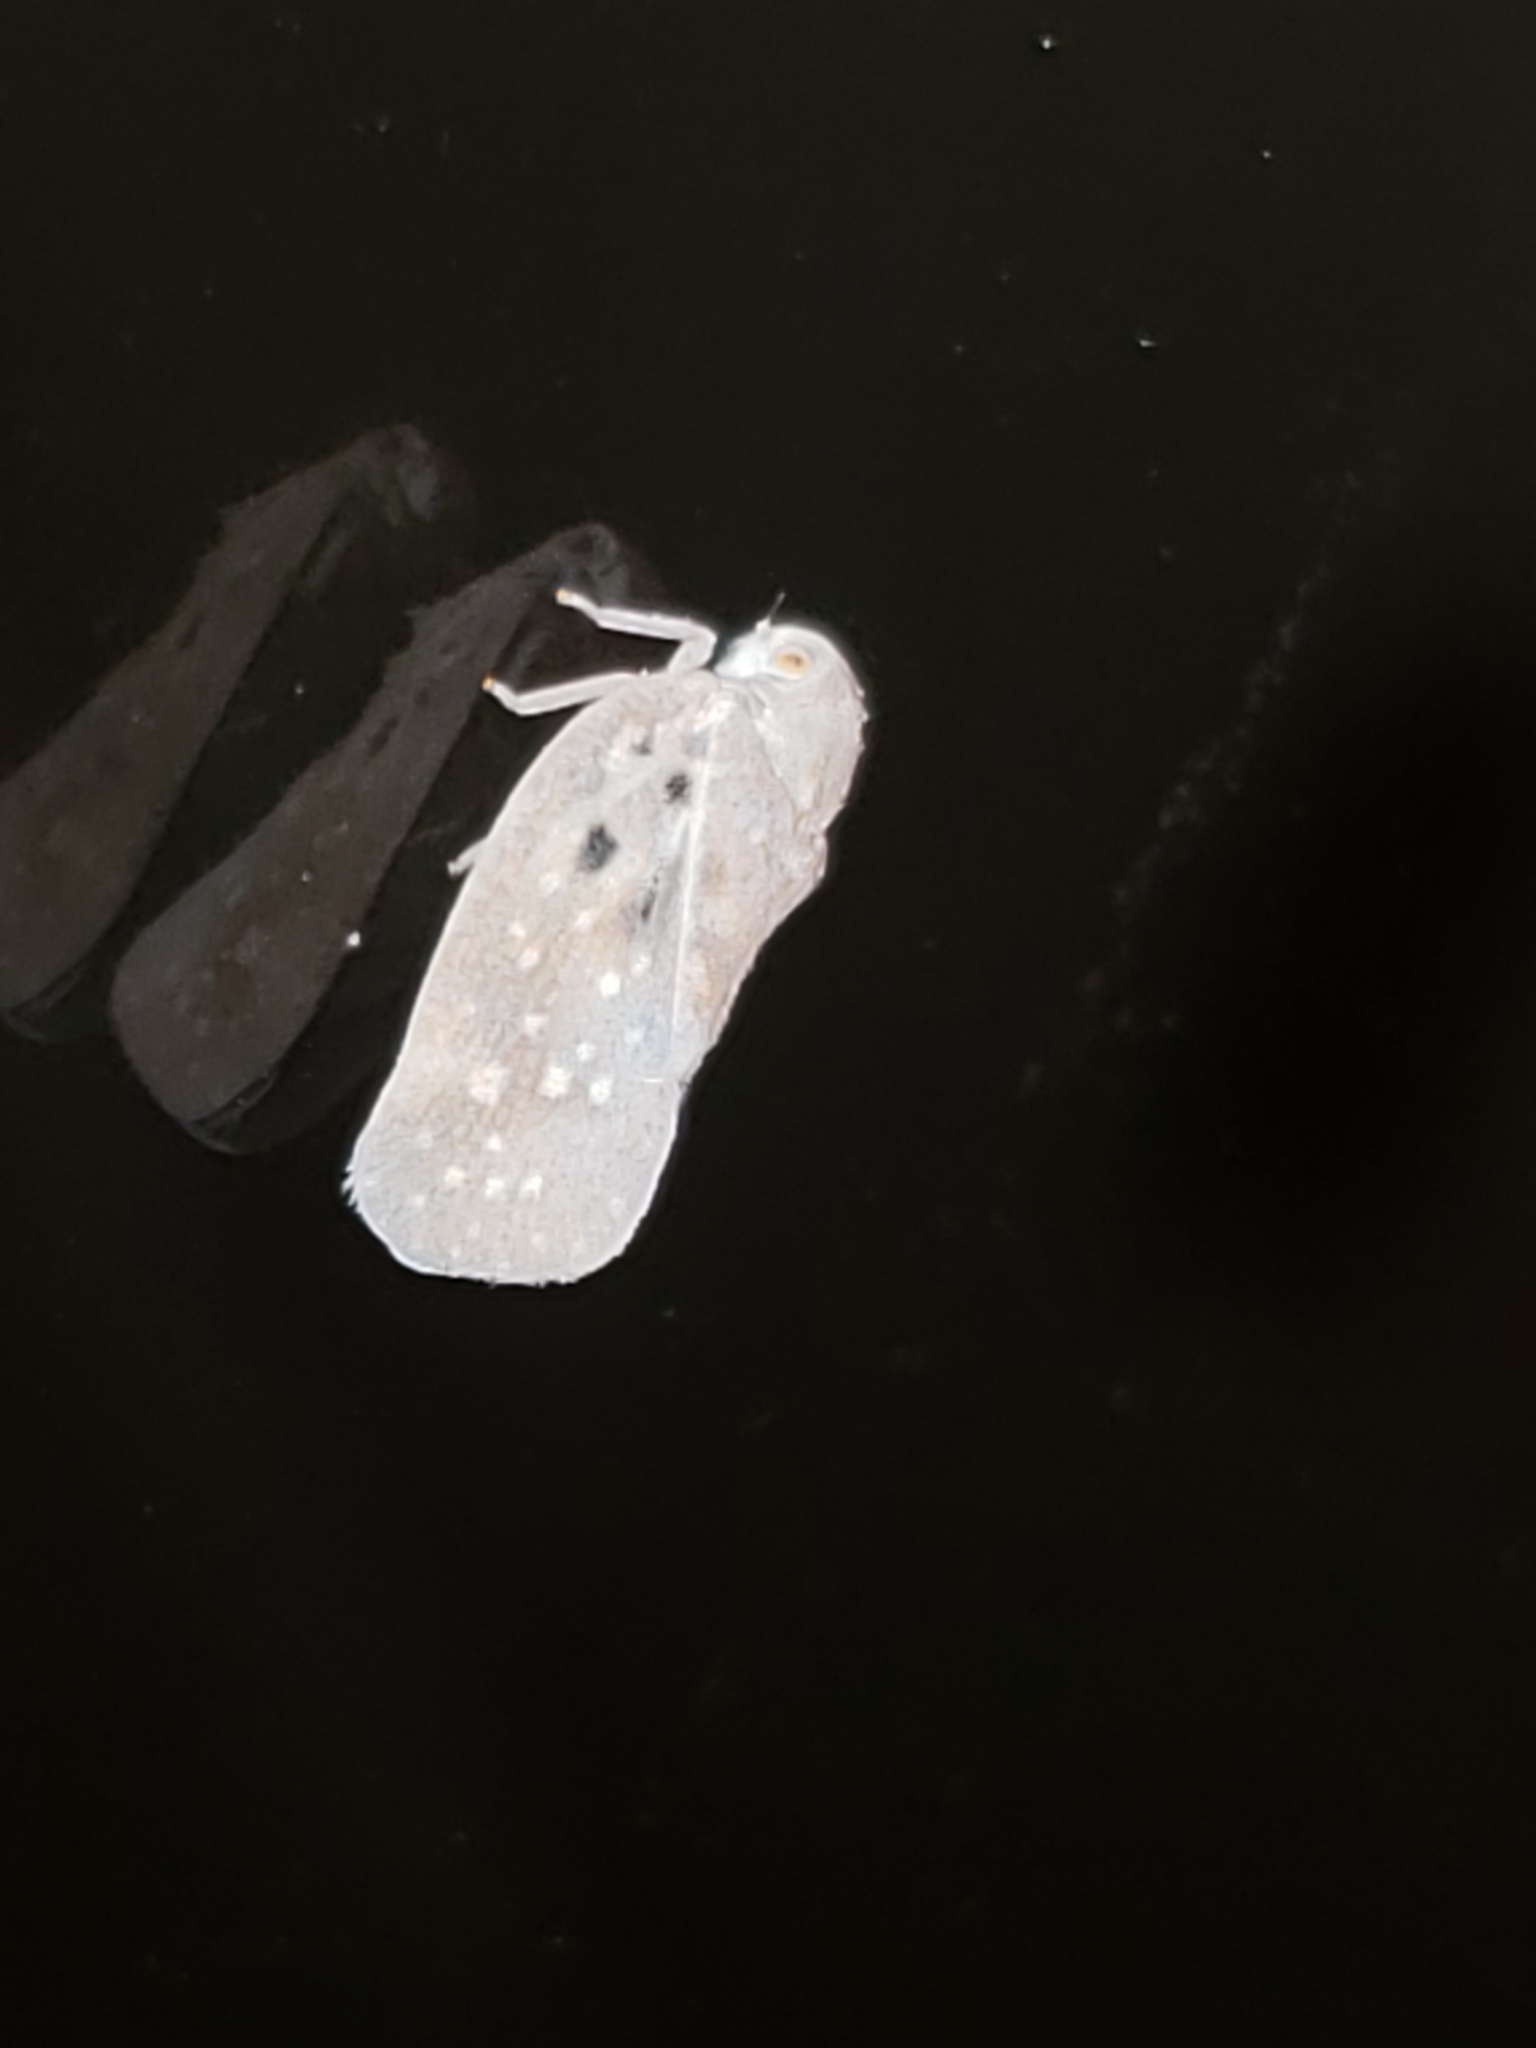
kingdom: Animalia
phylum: Arthropoda
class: Insecta
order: Hemiptera
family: Flatidae
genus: Metcalfa
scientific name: Metcalfa pruinosa
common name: Citrus flatid planthopper
